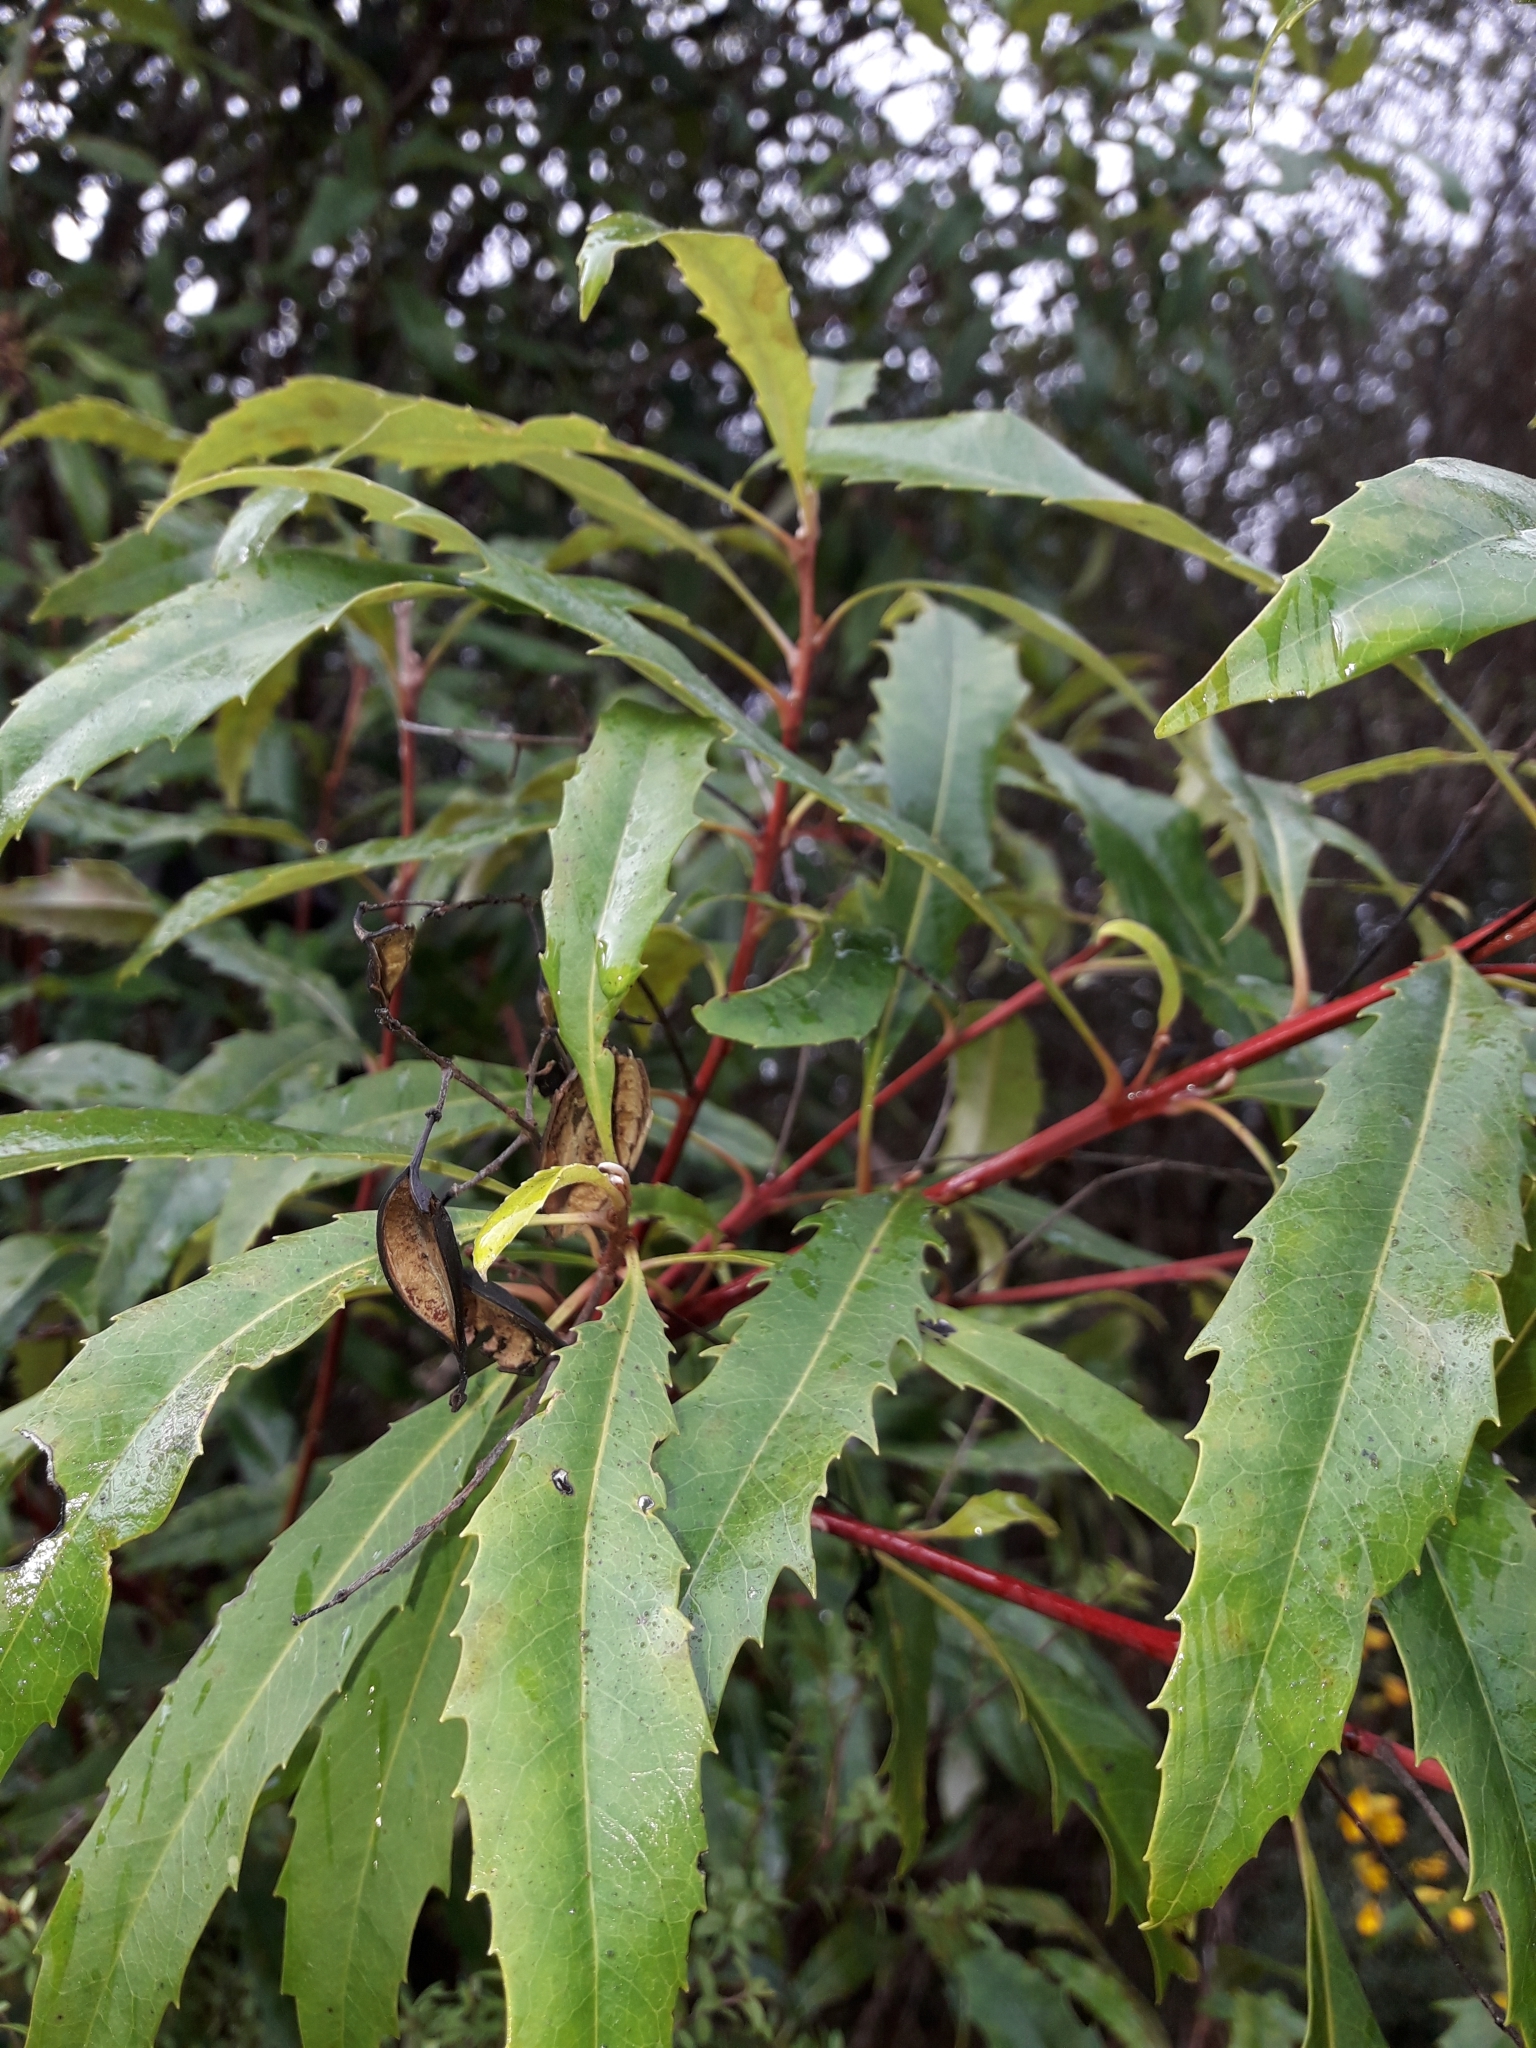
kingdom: Plantae
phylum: Tracheophyta
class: Magnoliopsida
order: Proteales
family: Proteaceae
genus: Lomatia
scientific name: Lomatia fraseri
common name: Forest lomatia
